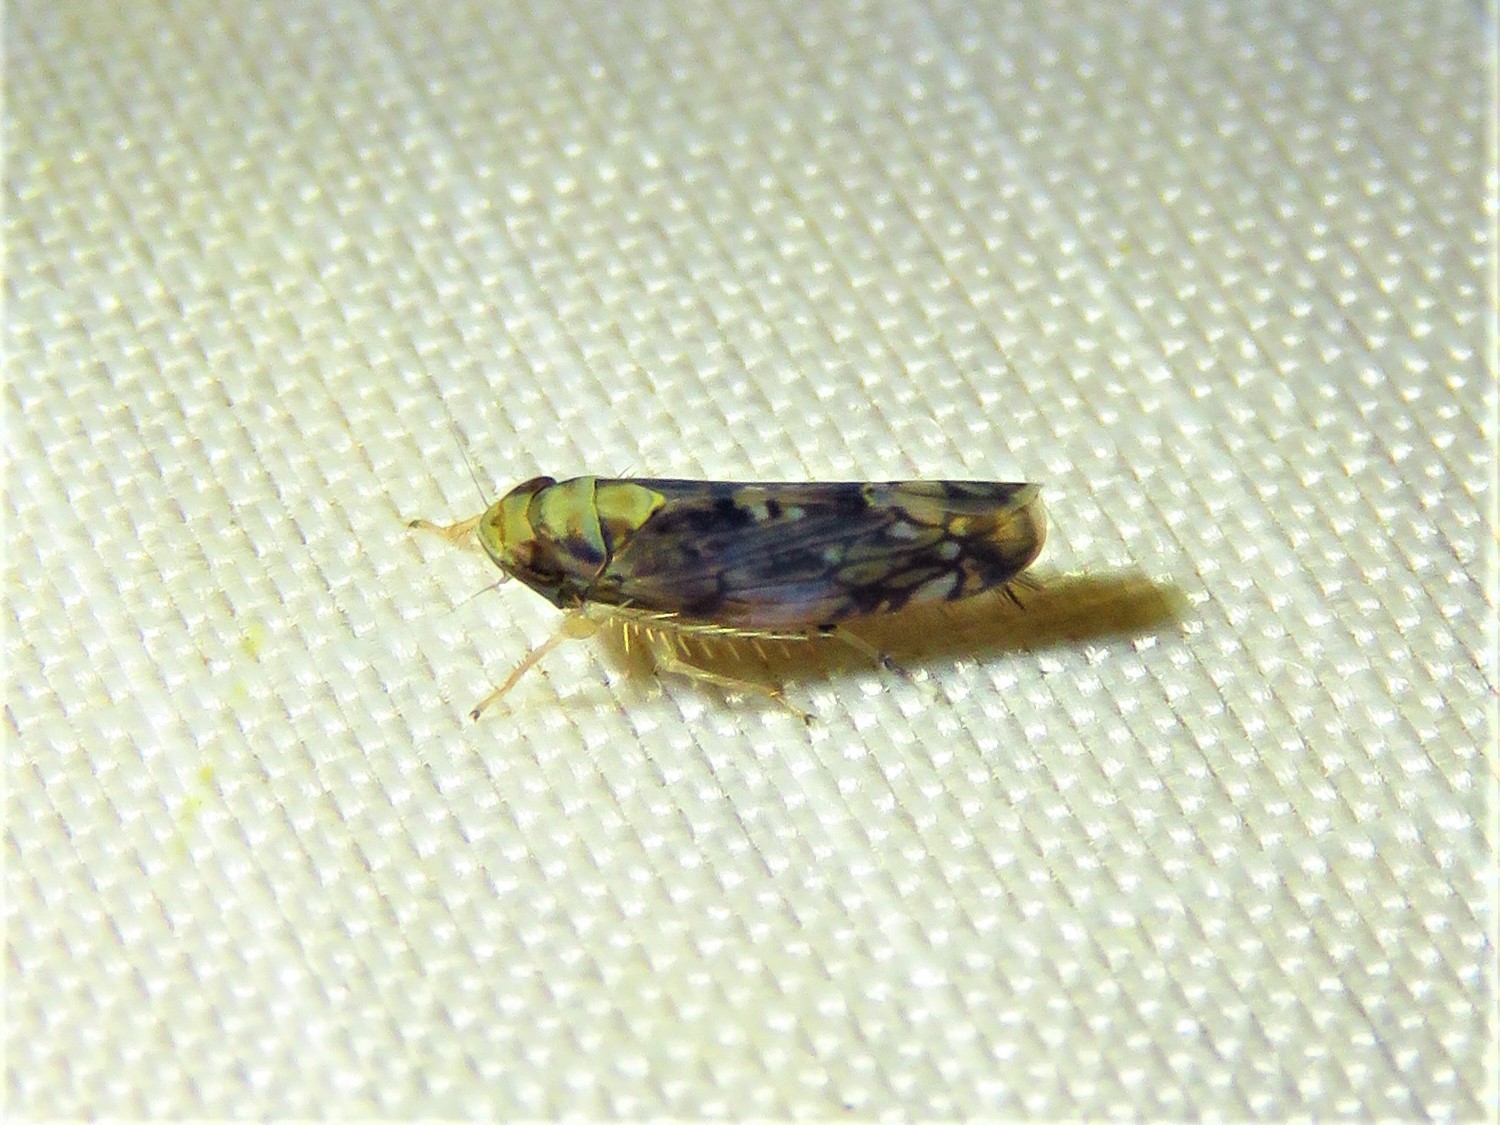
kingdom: Animalia
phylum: Arthropoda
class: Insecta
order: Hemiptera
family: Cicadellidae
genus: Scaphoideus
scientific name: Scaphoideus pullus
